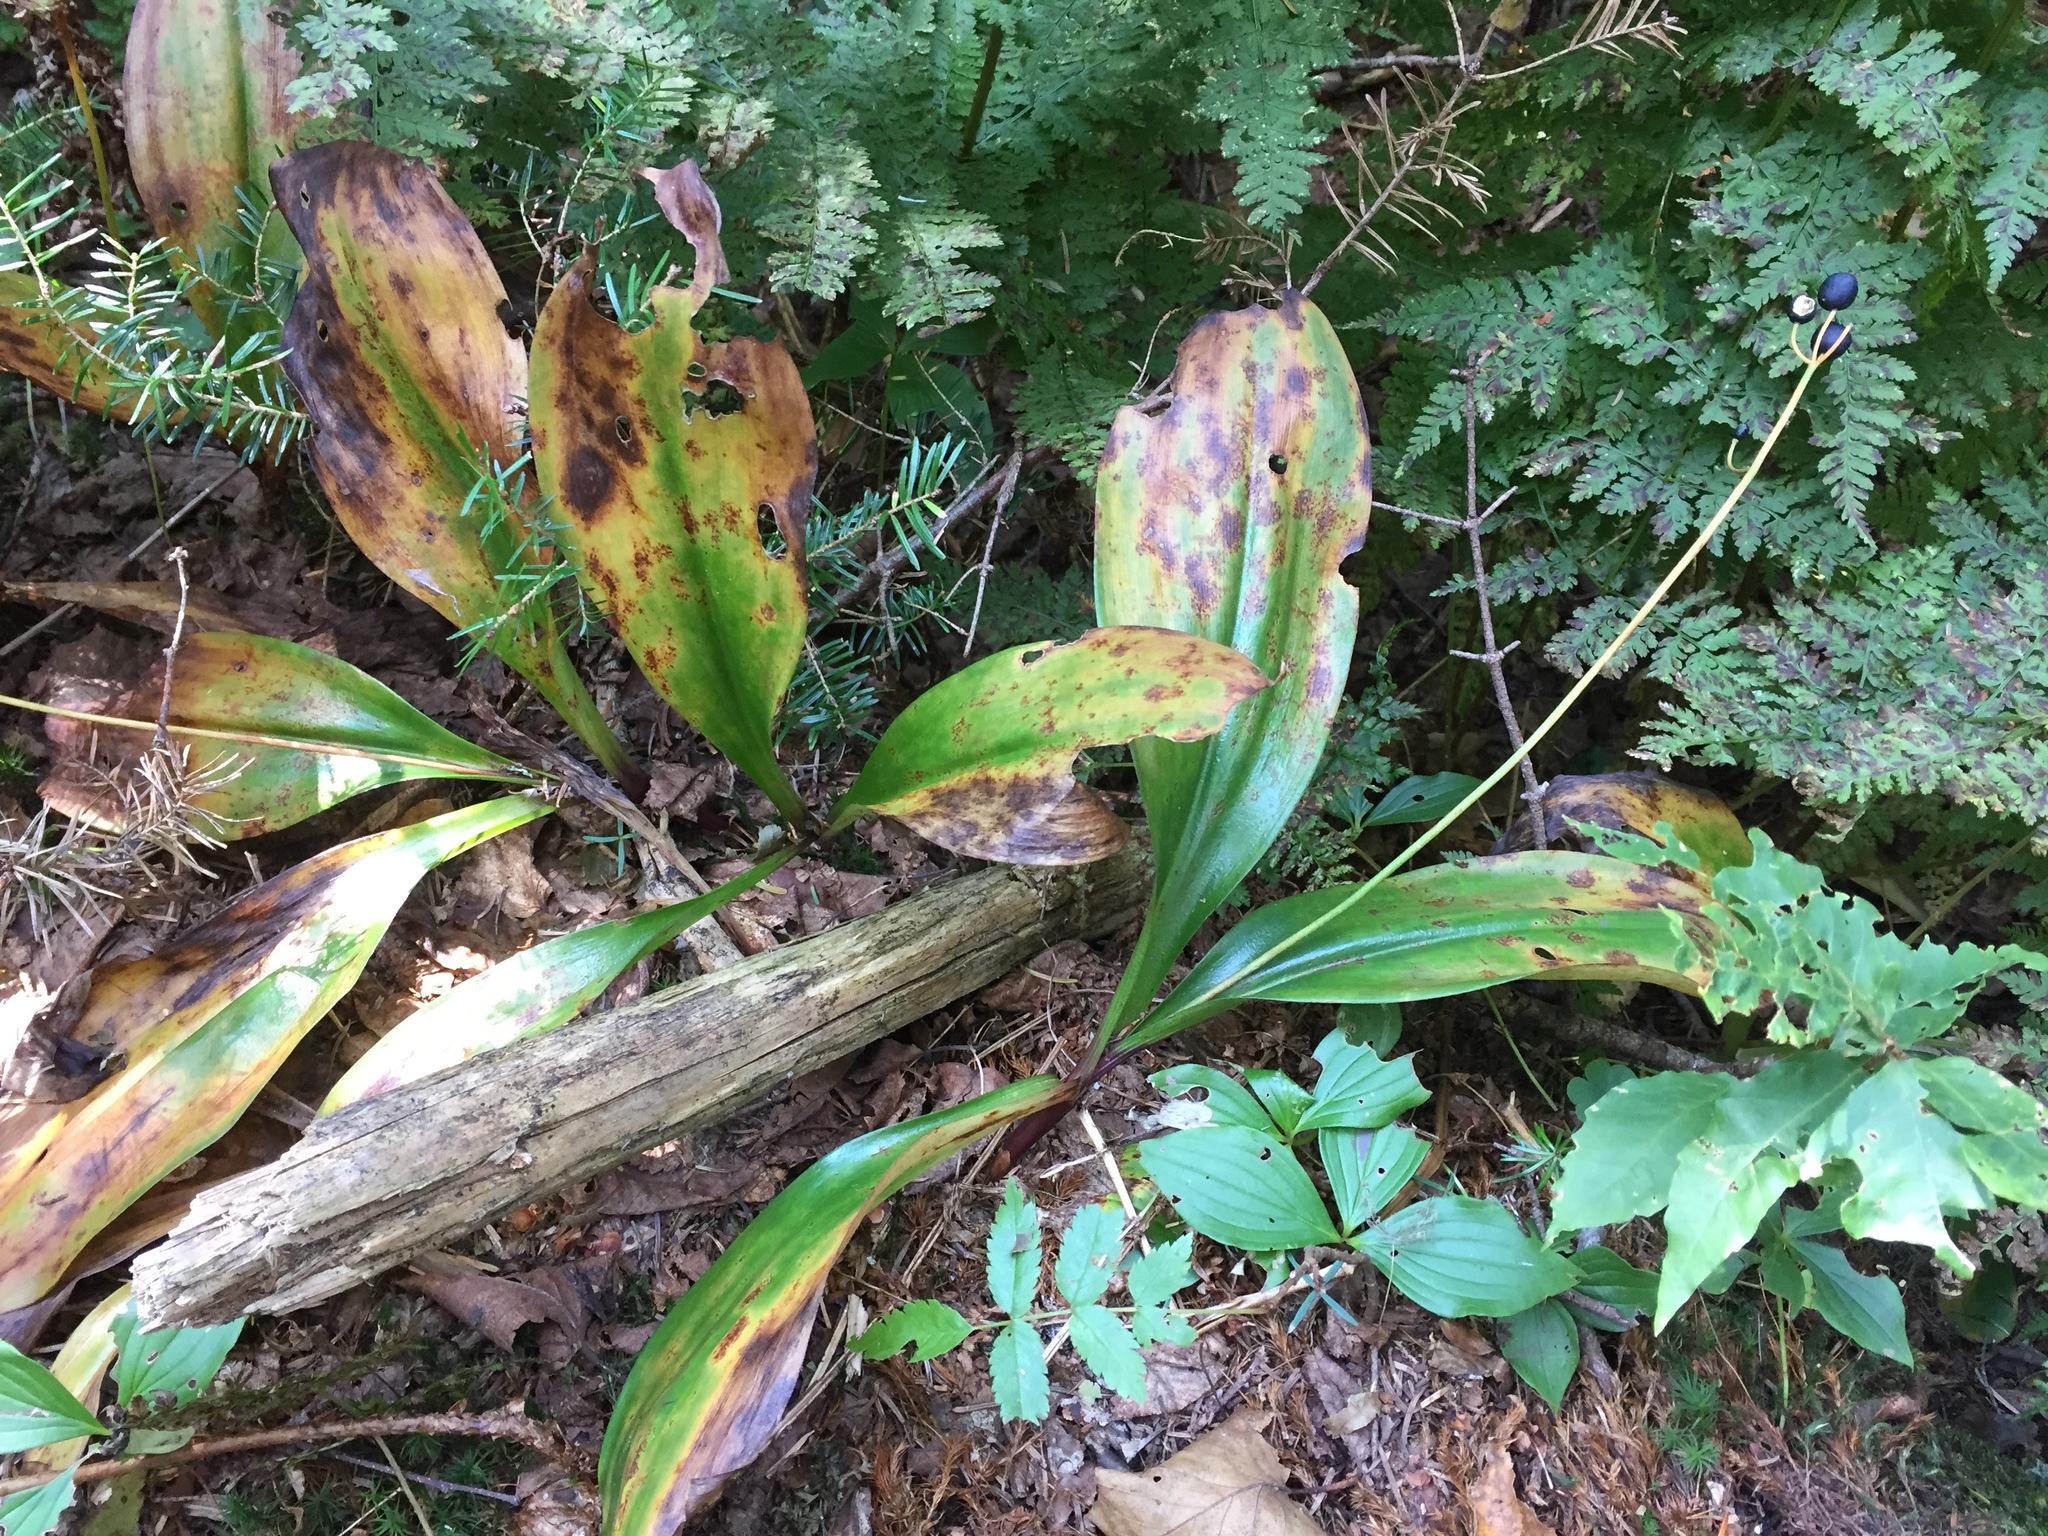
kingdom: Plantae
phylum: Tracheophyta
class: Liliopsida
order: Liliales
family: Liliaceae
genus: Clintonia
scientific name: Clintonia borealis
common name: Yellow clintonia
